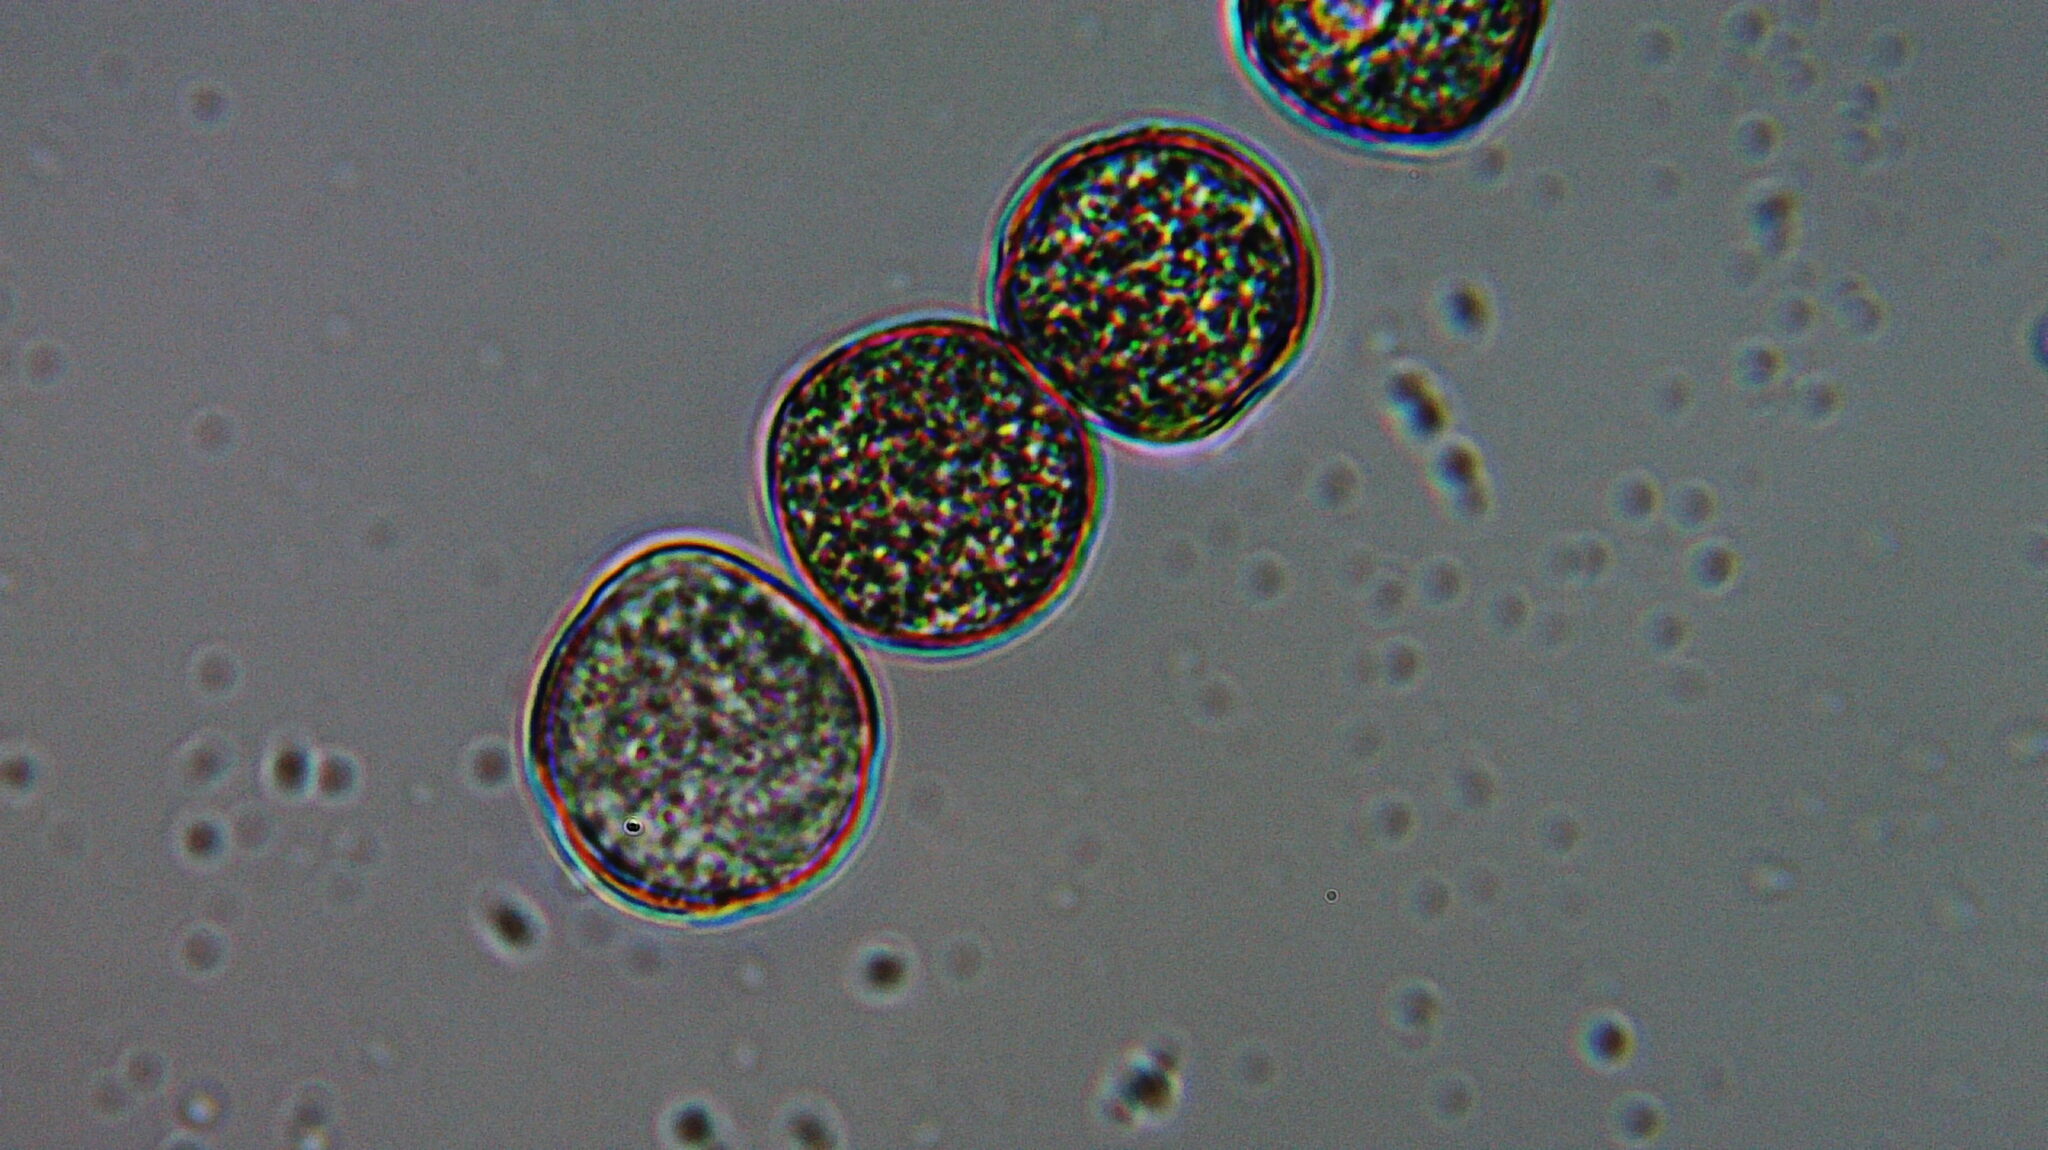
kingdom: Plantae
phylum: Tracheophyta
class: Magnoliopsida
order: Lamiales
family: Plantaginaceae
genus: Cymbalaria
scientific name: Cymbalaria muralis
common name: Ivy-leaved toadflax
